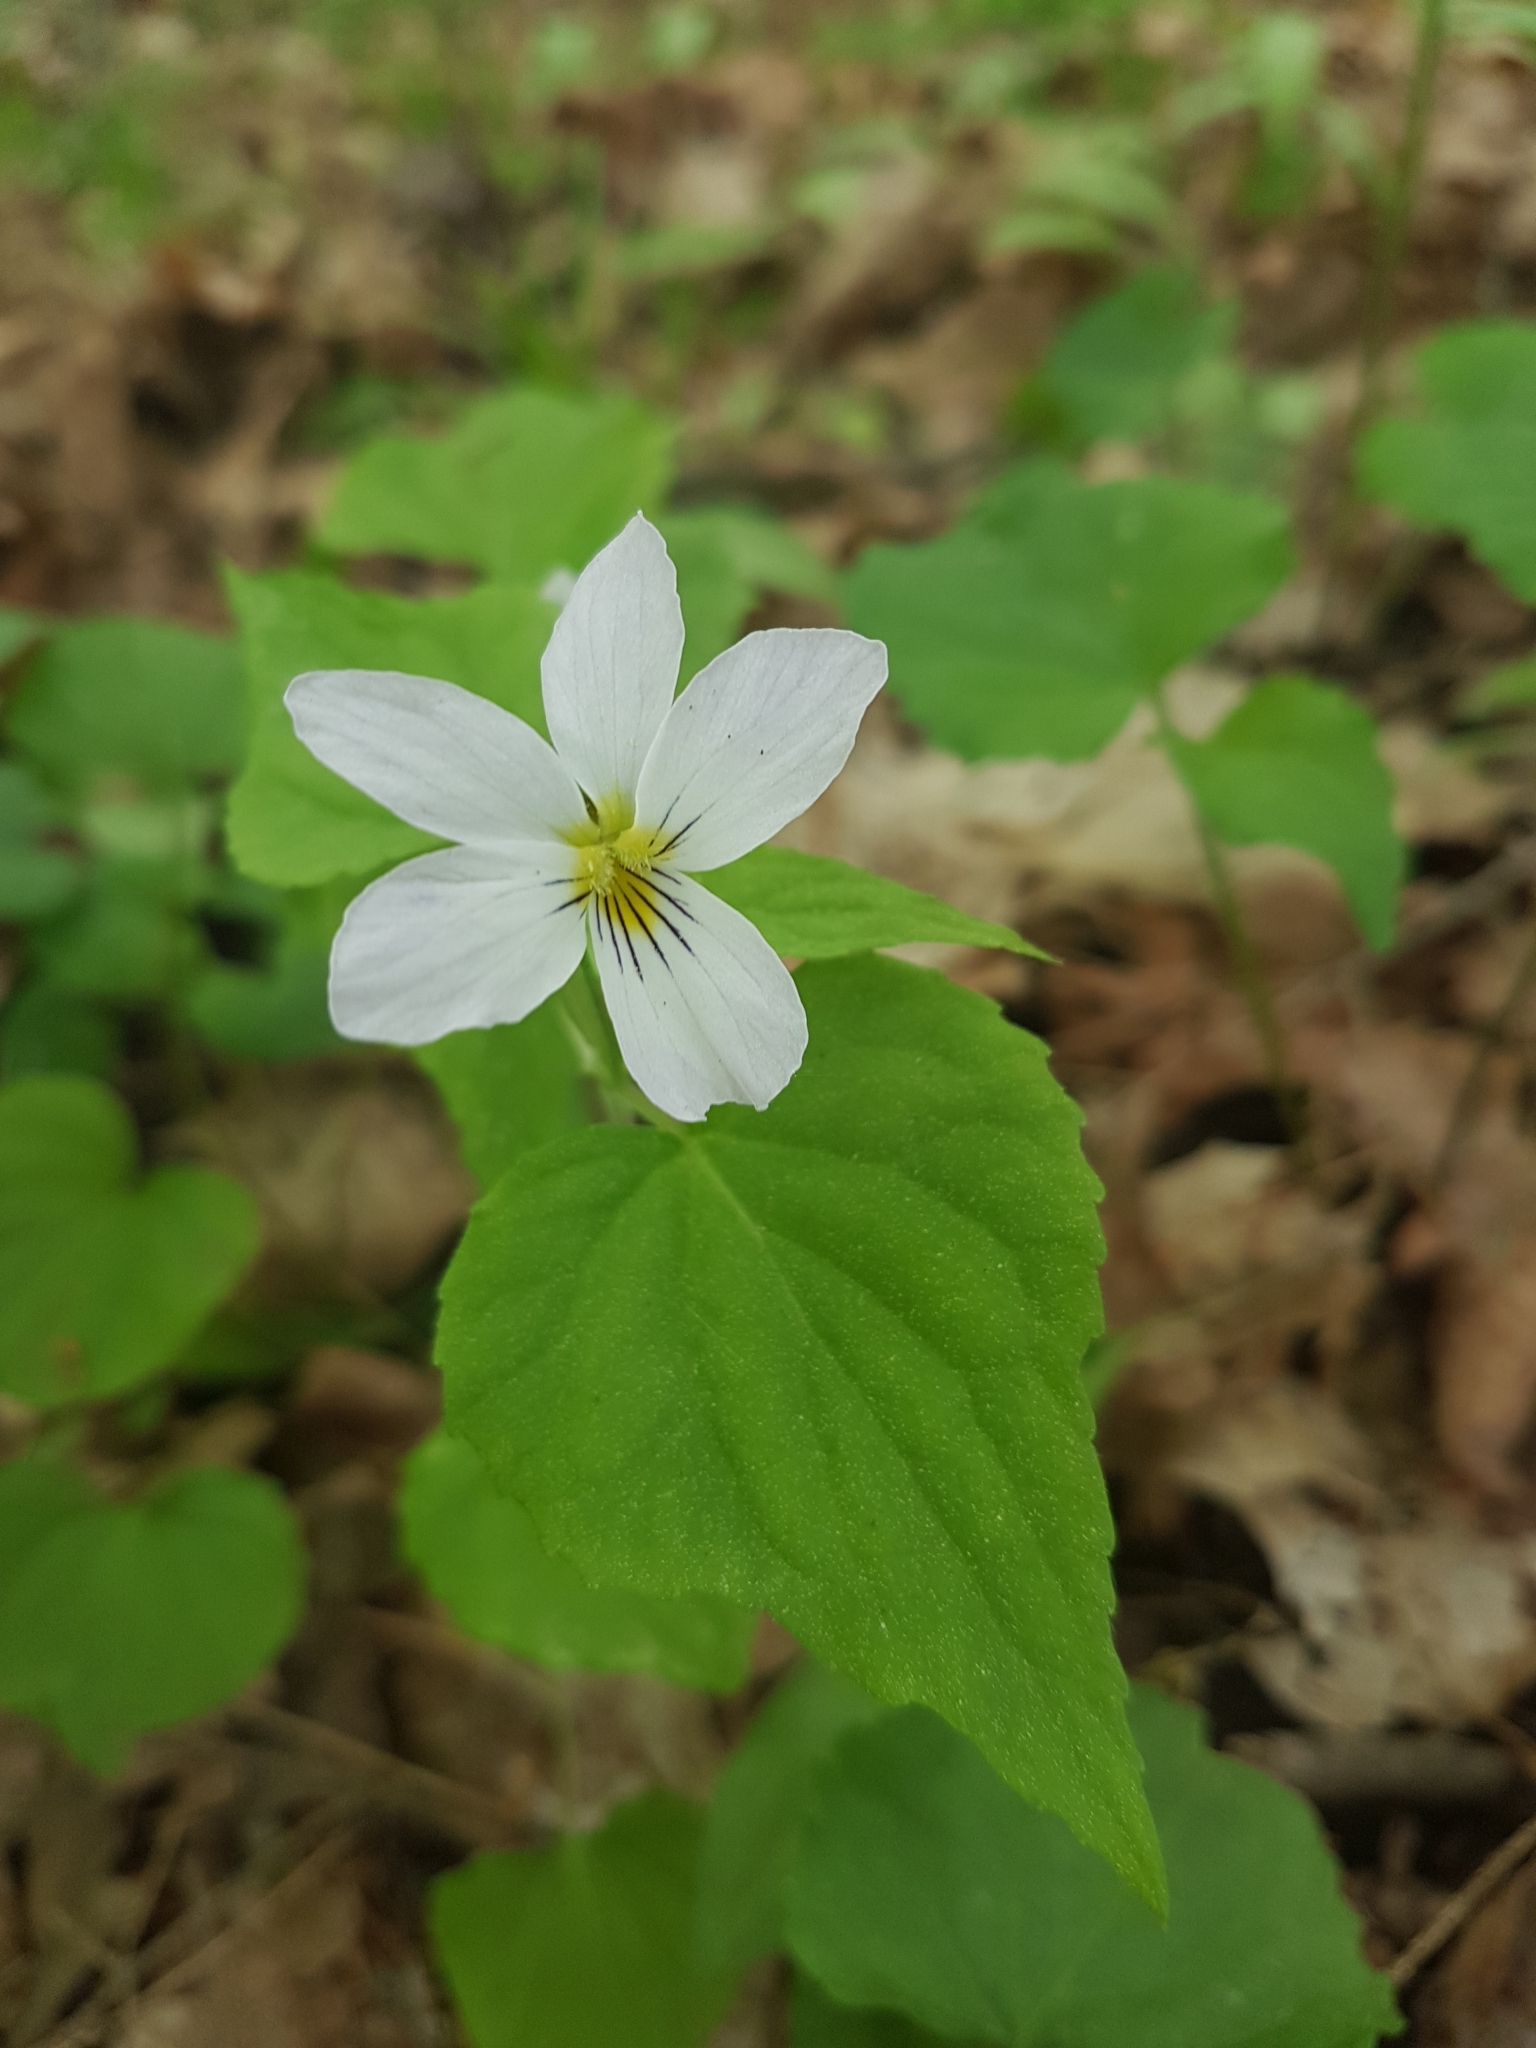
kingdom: Plantae
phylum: Tracheophyta
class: Magnoliopsida
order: Malpighiales
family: Violaceae
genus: Viola
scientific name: Viola canadensis
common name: Canada violet
